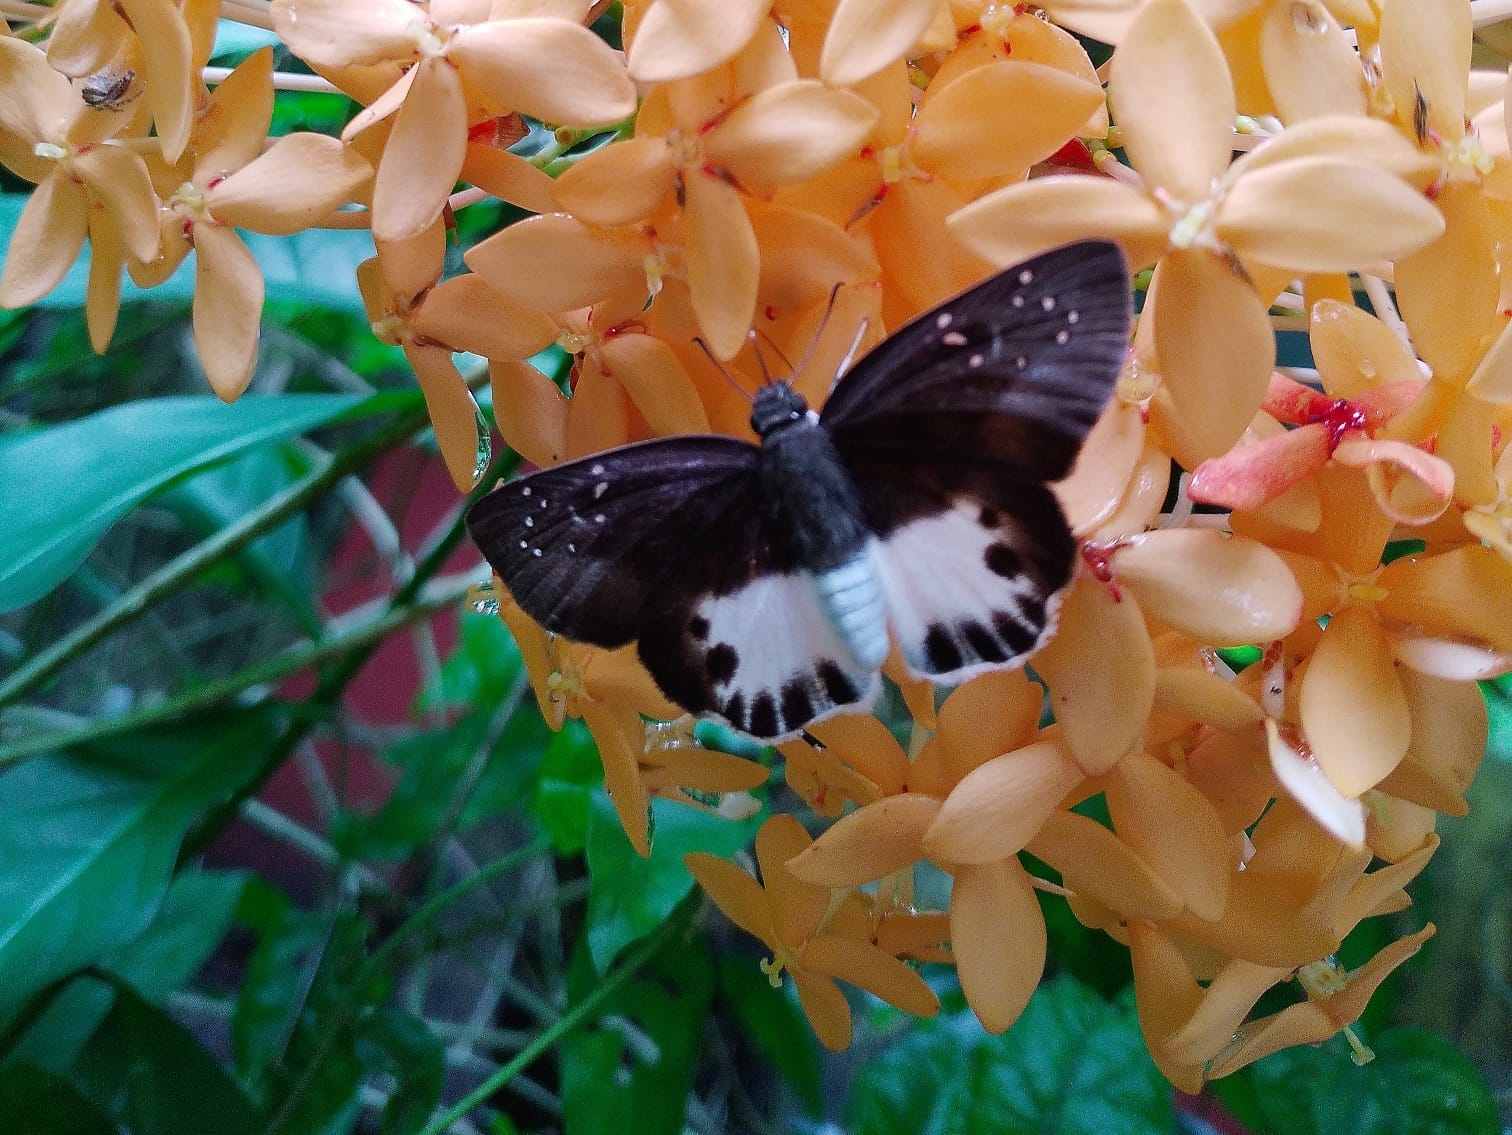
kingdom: Animalia
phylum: Arthropoda
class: Insecta
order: Lepidoptera
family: Hesperiidae
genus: Tagiades
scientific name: Tagiades litigiosa
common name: Water snow flat
